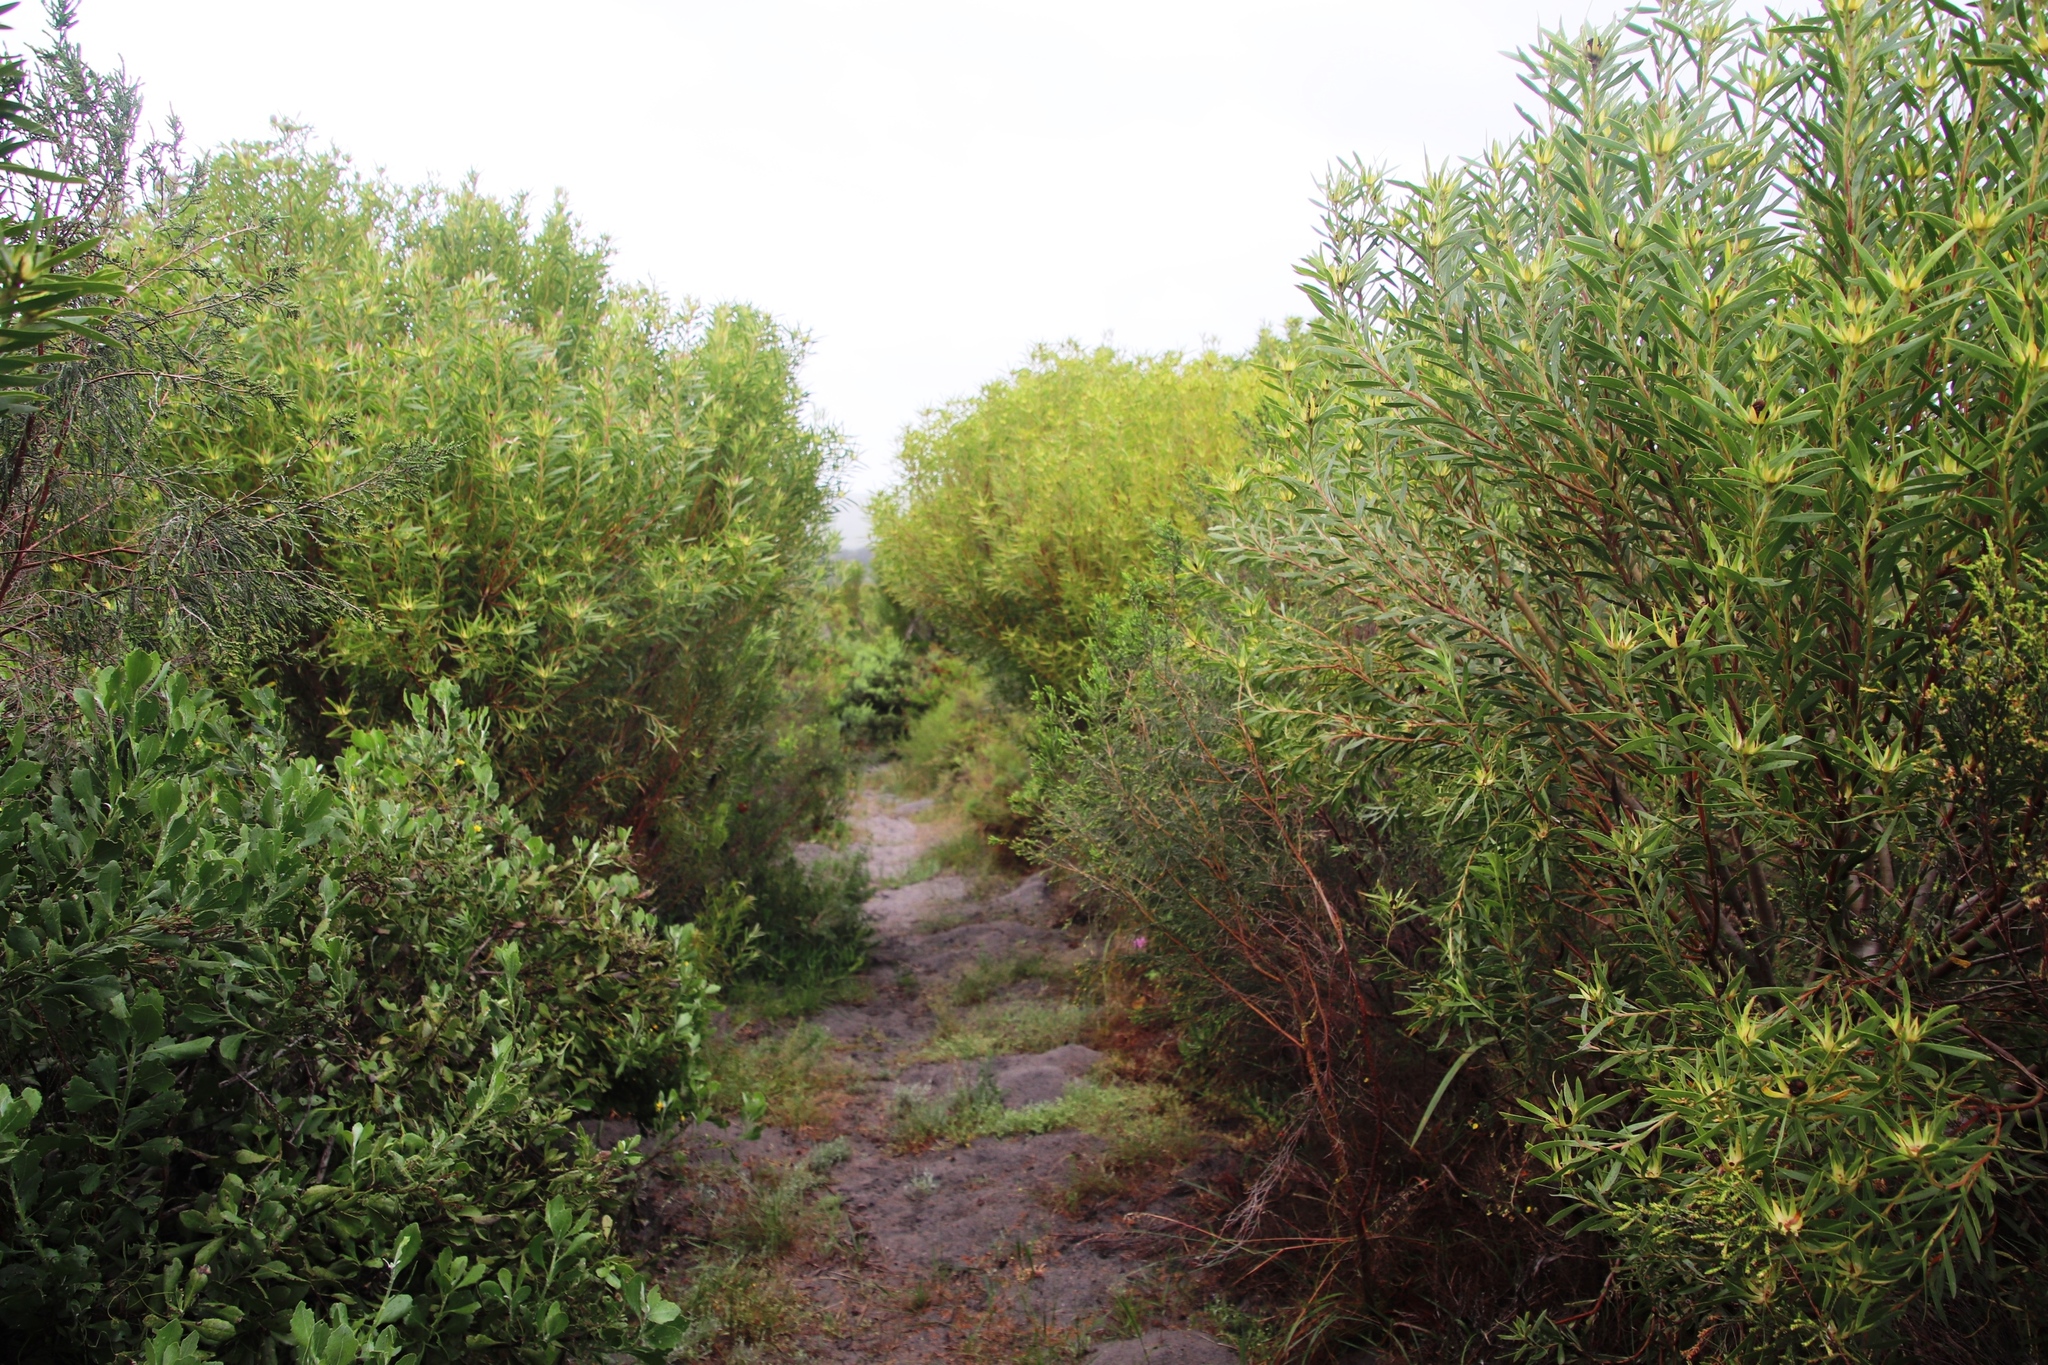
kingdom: Plantae
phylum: Tracheophyta
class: Magnoliopsida
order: Proteales
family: Proteaceae
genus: Leucadendron
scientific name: Leucadendron coniferum
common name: Dune conebush
